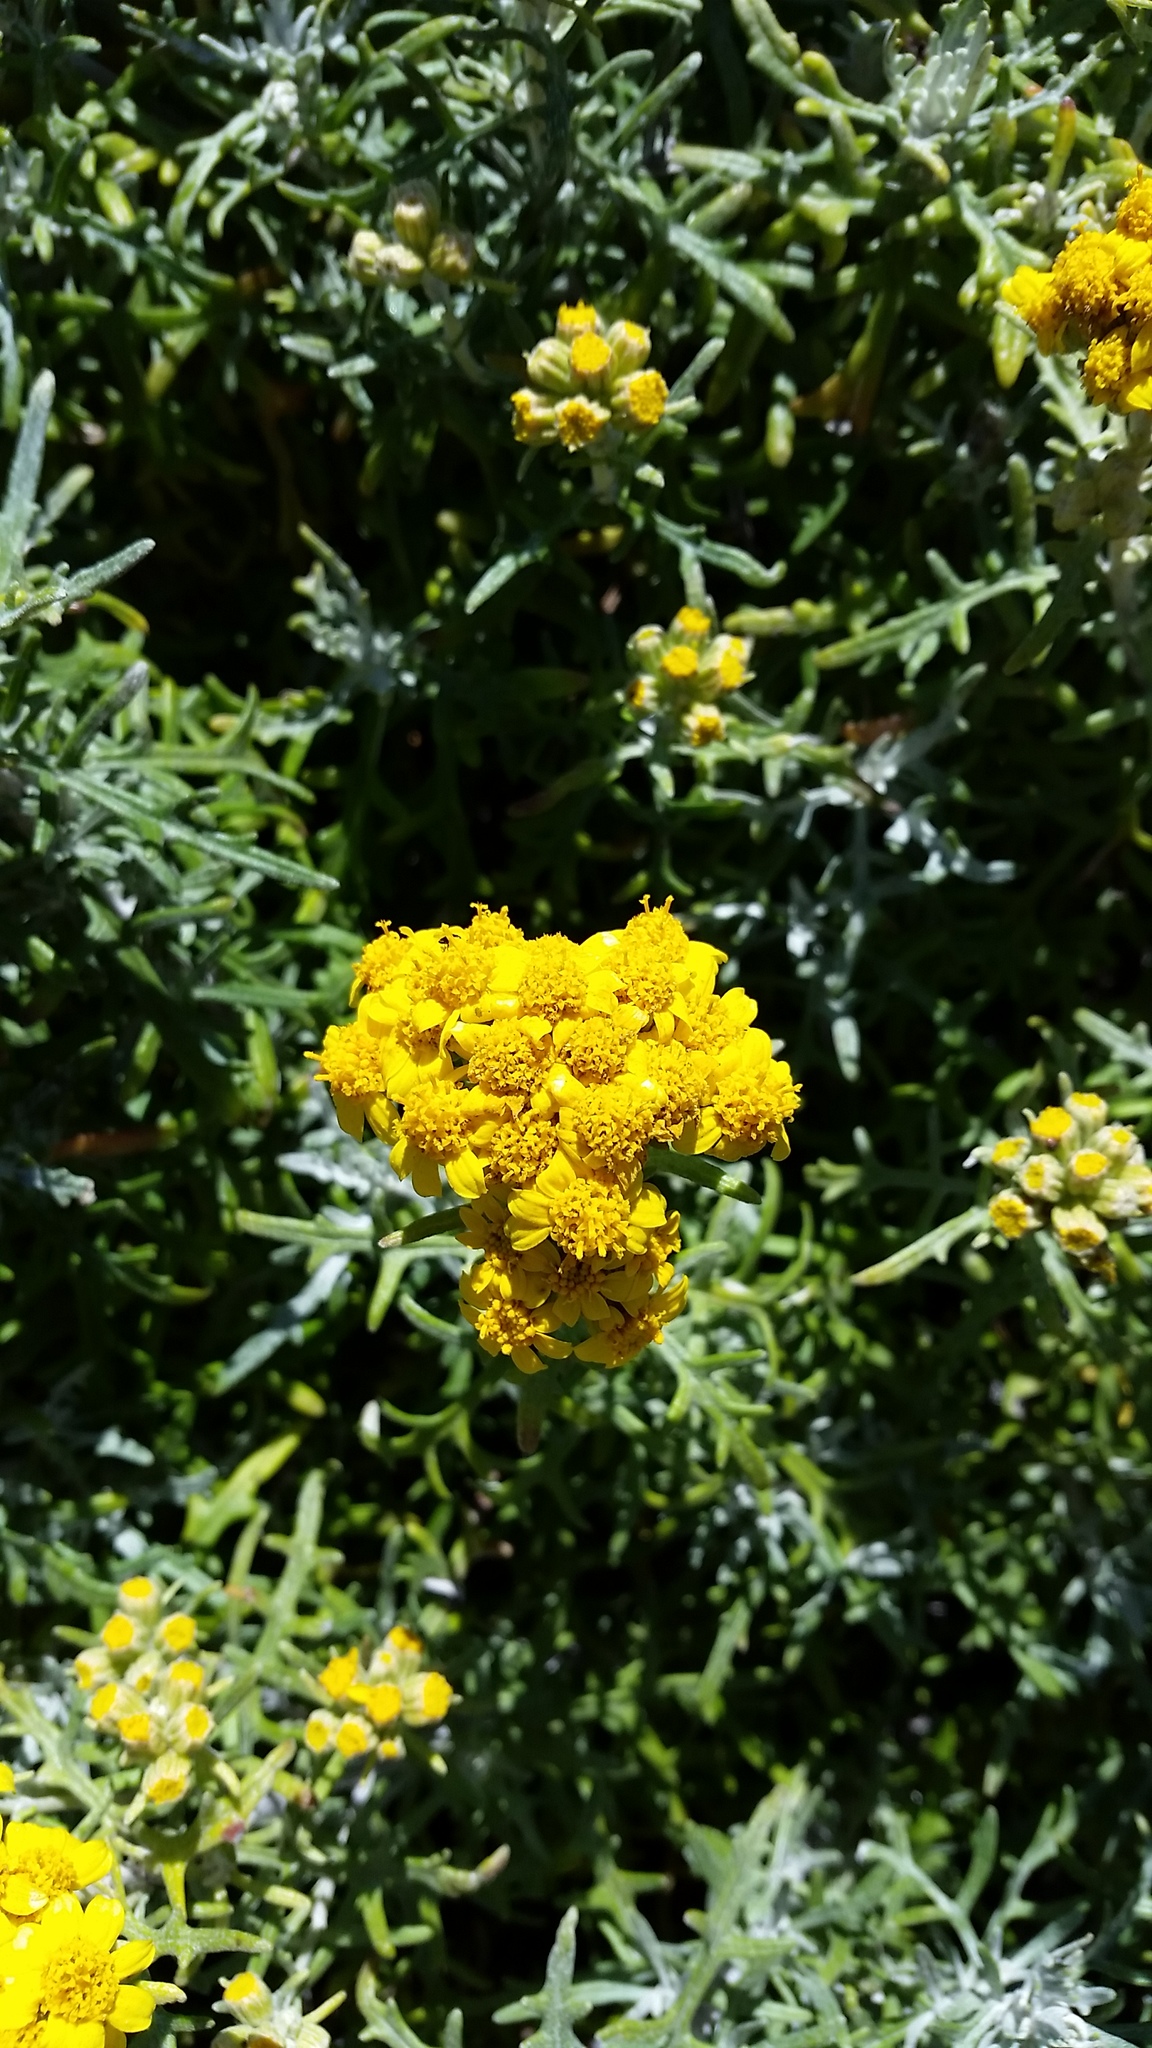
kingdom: Plantae
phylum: Tracheophyta
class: Magnoliopsida
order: Asterales
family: Asteraceae
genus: Eriophyllum
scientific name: Eriophyllum staechadifolium
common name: Lizardtail
